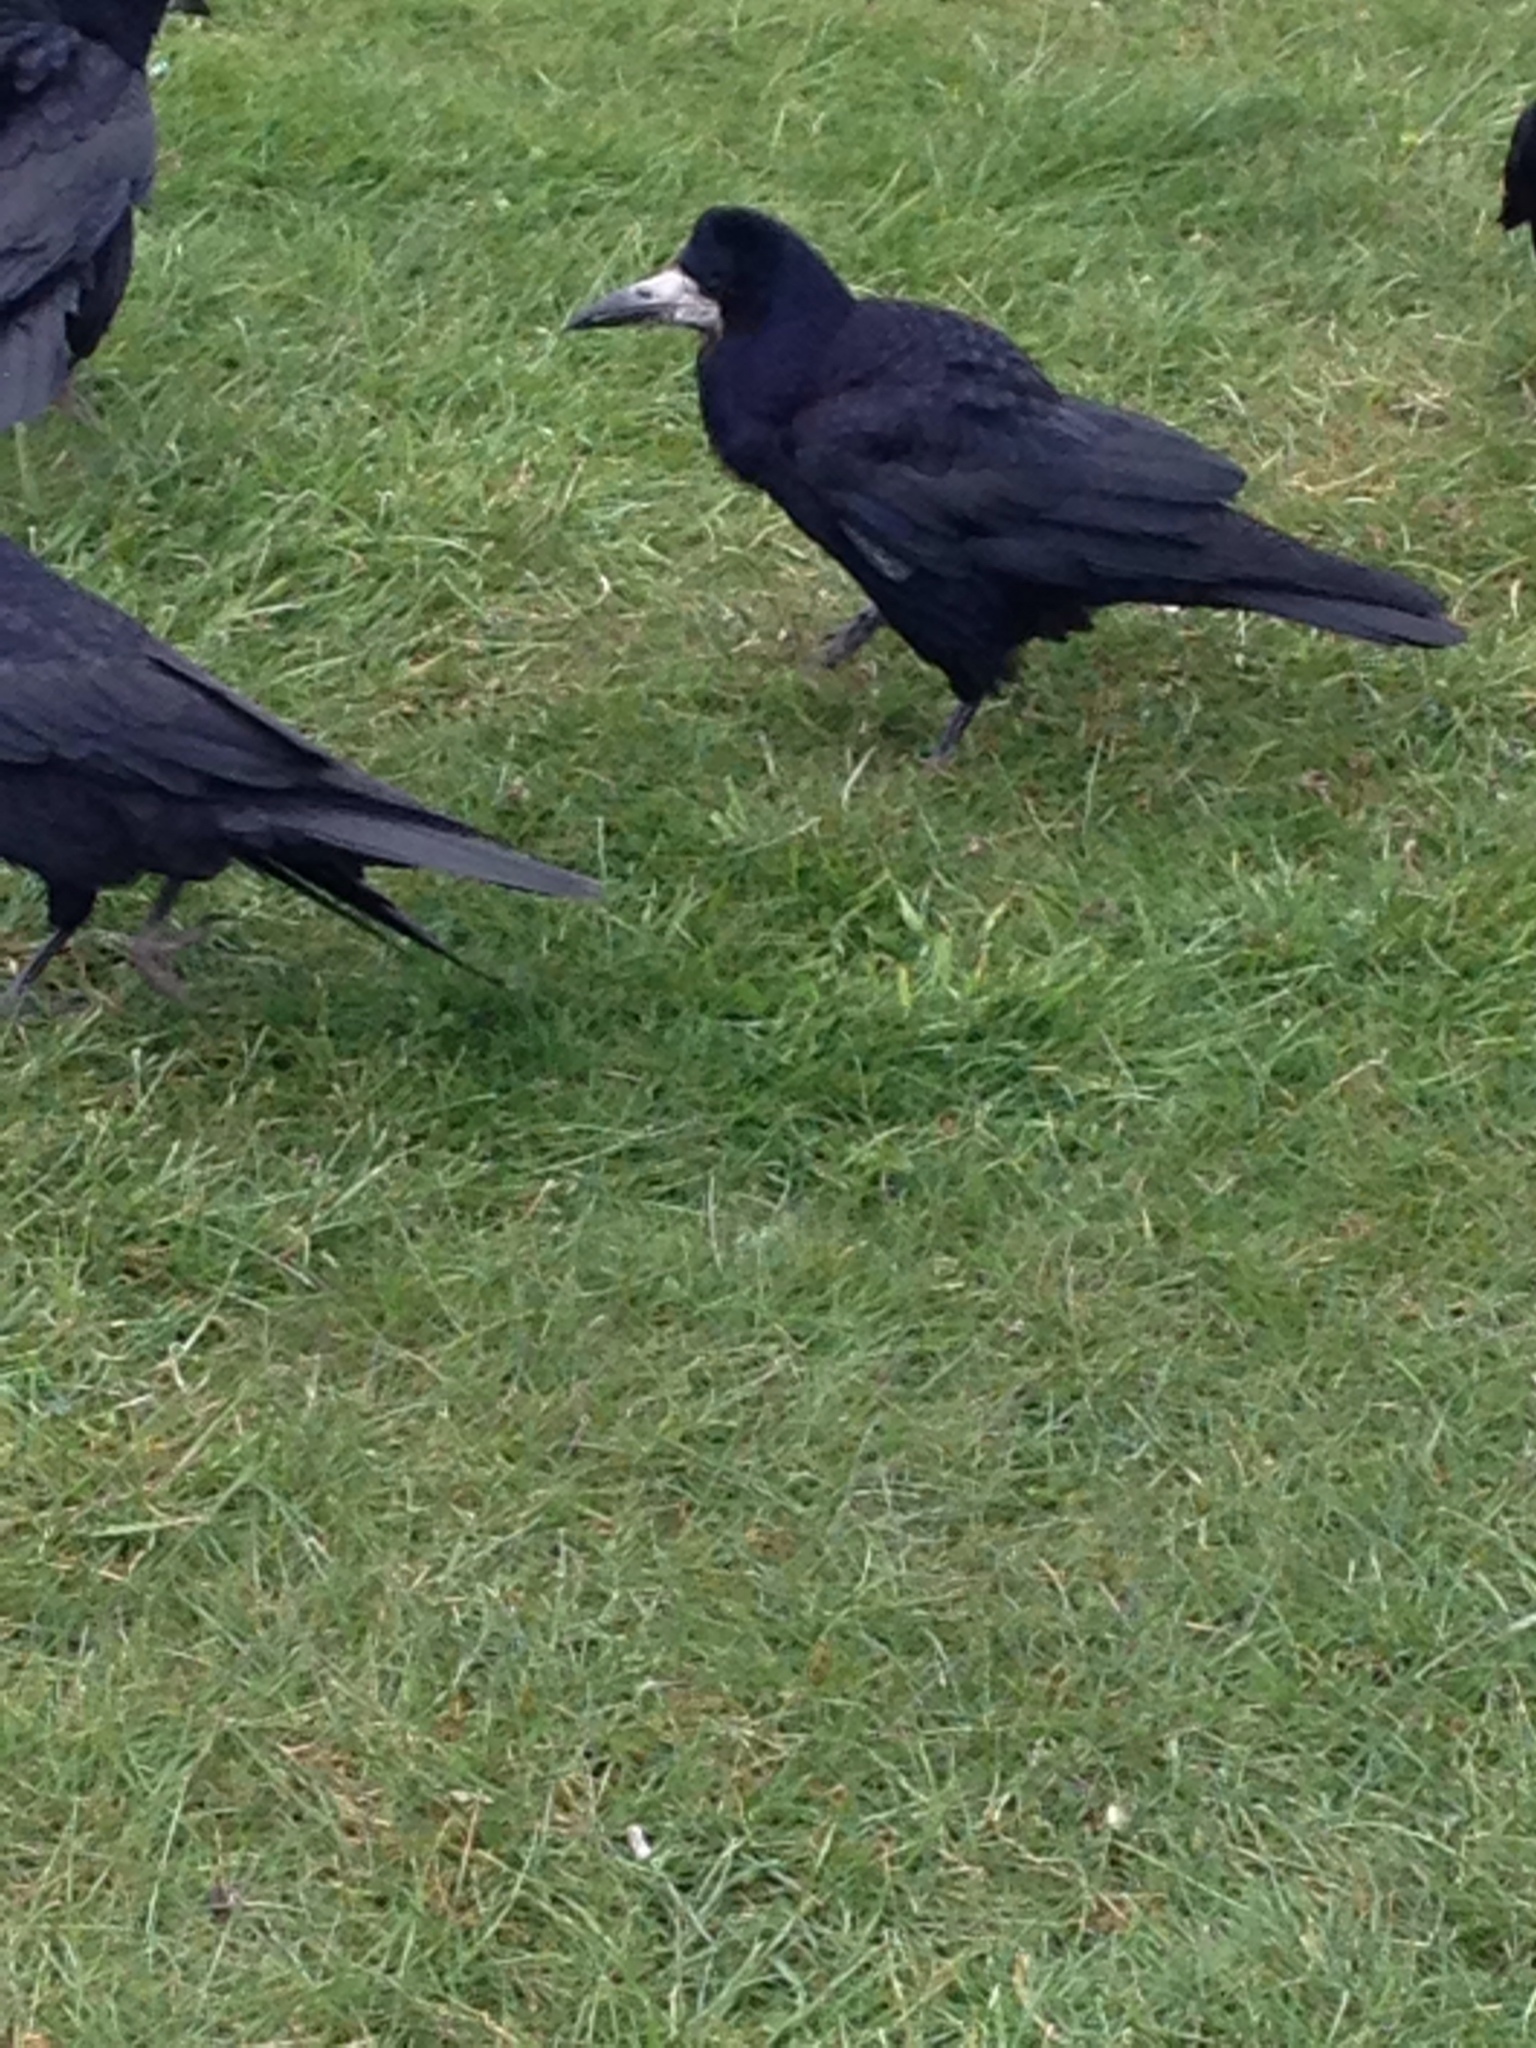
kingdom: Animalia
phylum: Chordata
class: Aves
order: Passeriformes
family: Corvidae
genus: Corvus
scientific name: Corvus frugilegus
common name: Rook
